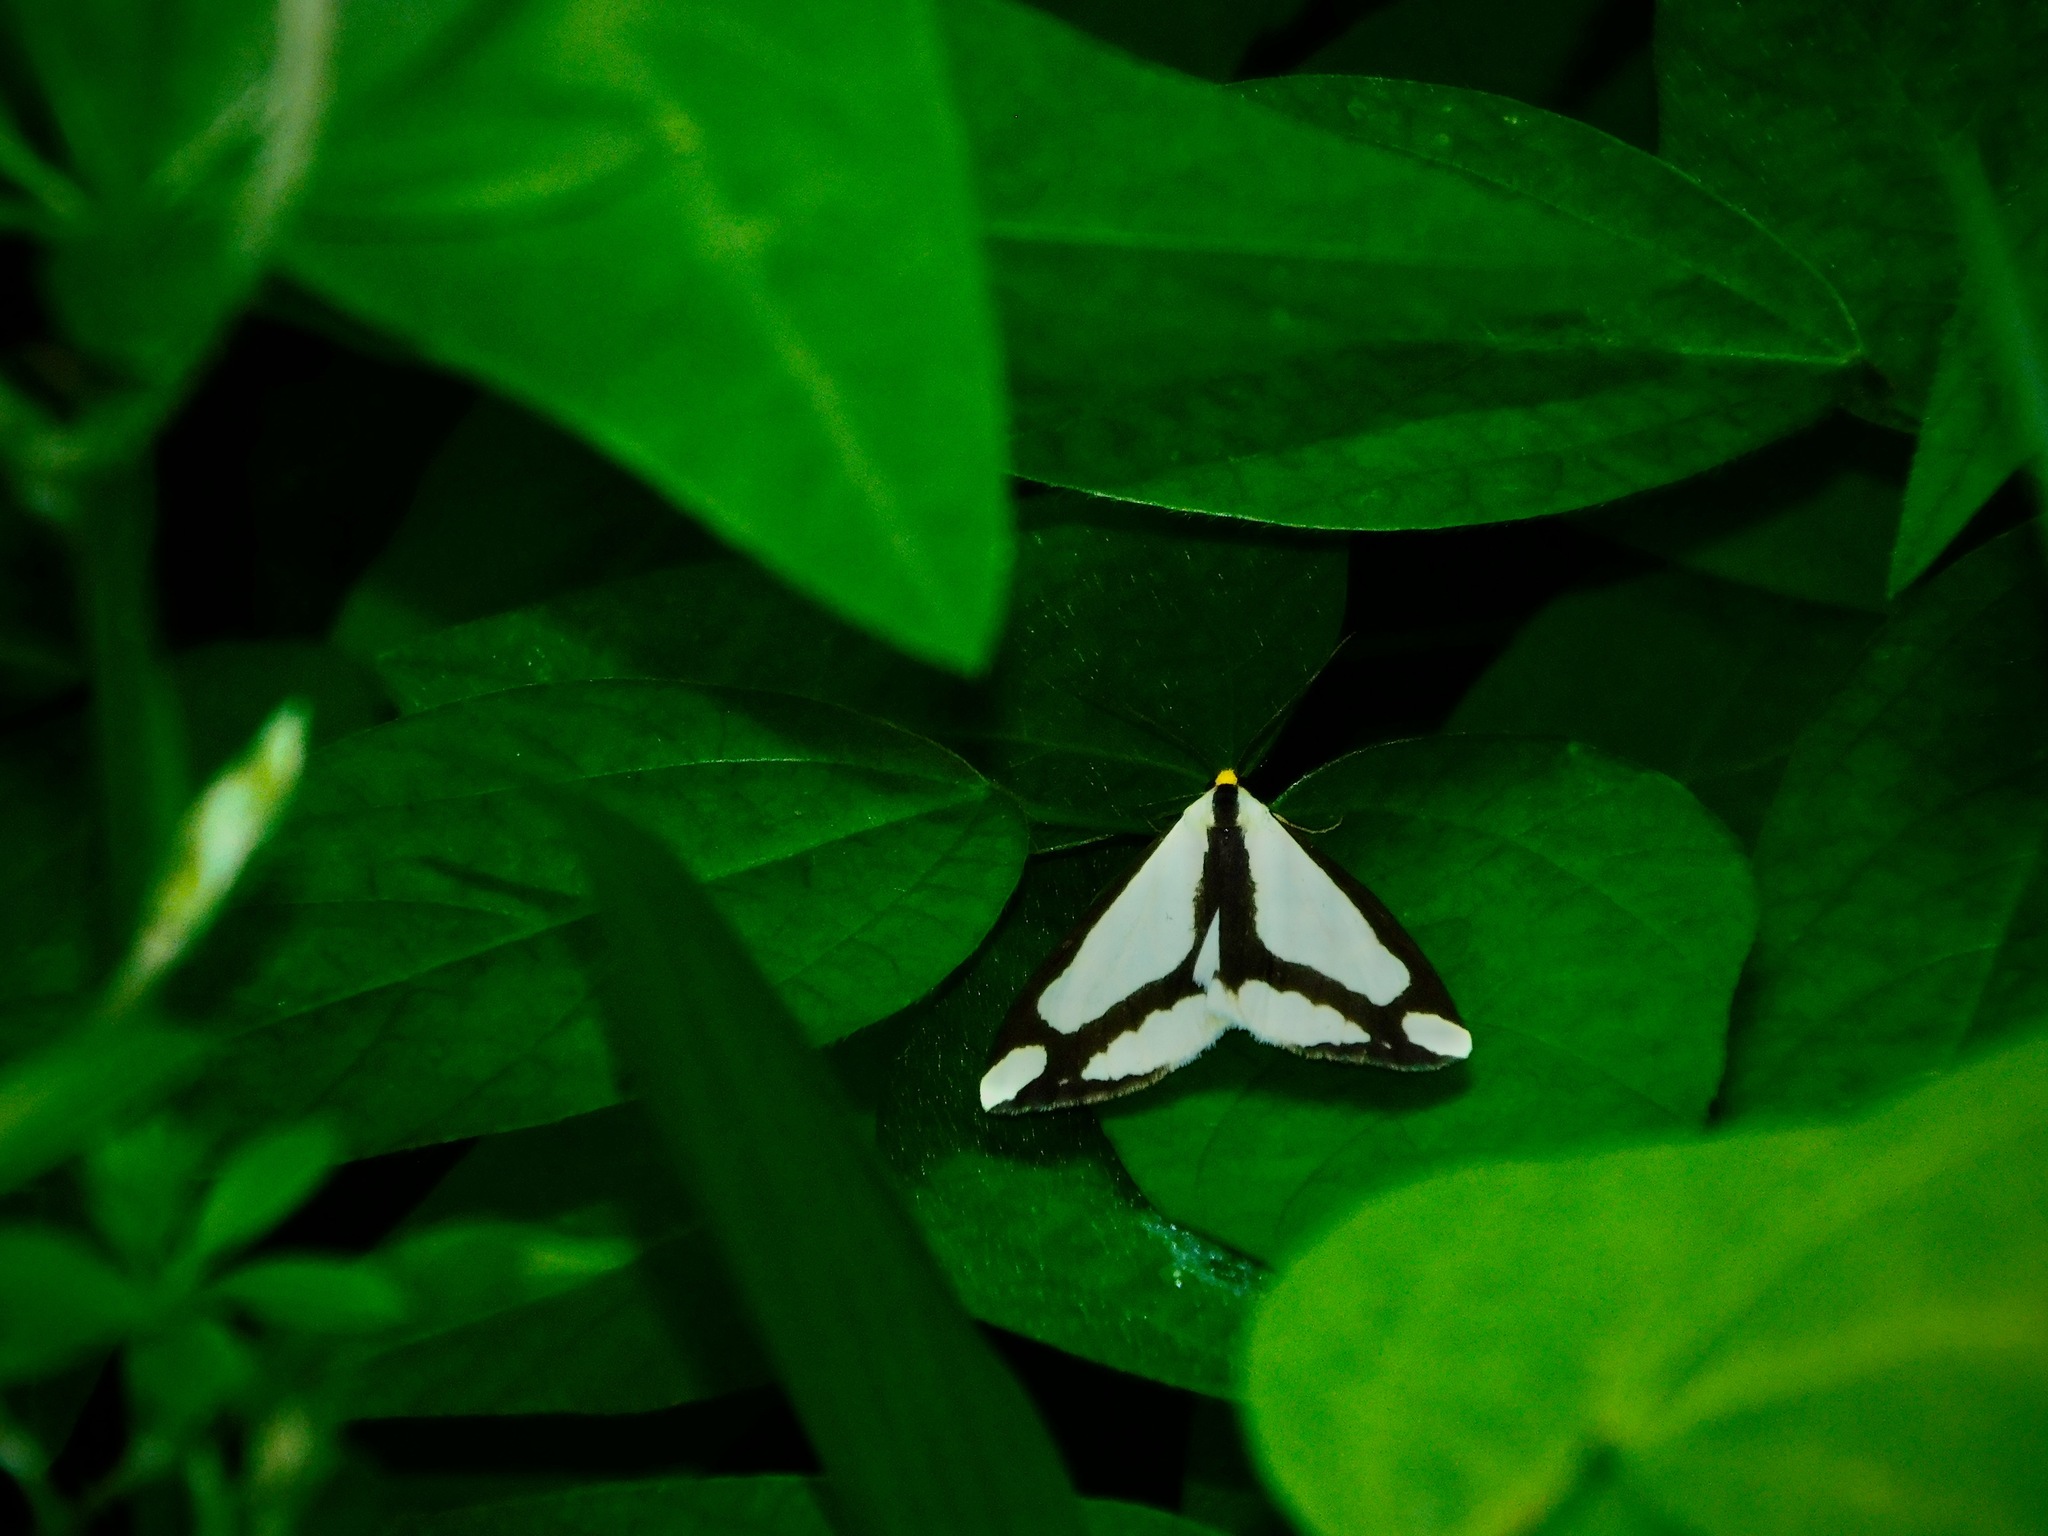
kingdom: Animalia
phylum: Arthropoda
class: Insecta
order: Lepidoptera
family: Erebidae
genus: Haploa
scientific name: Haploa lecontei
